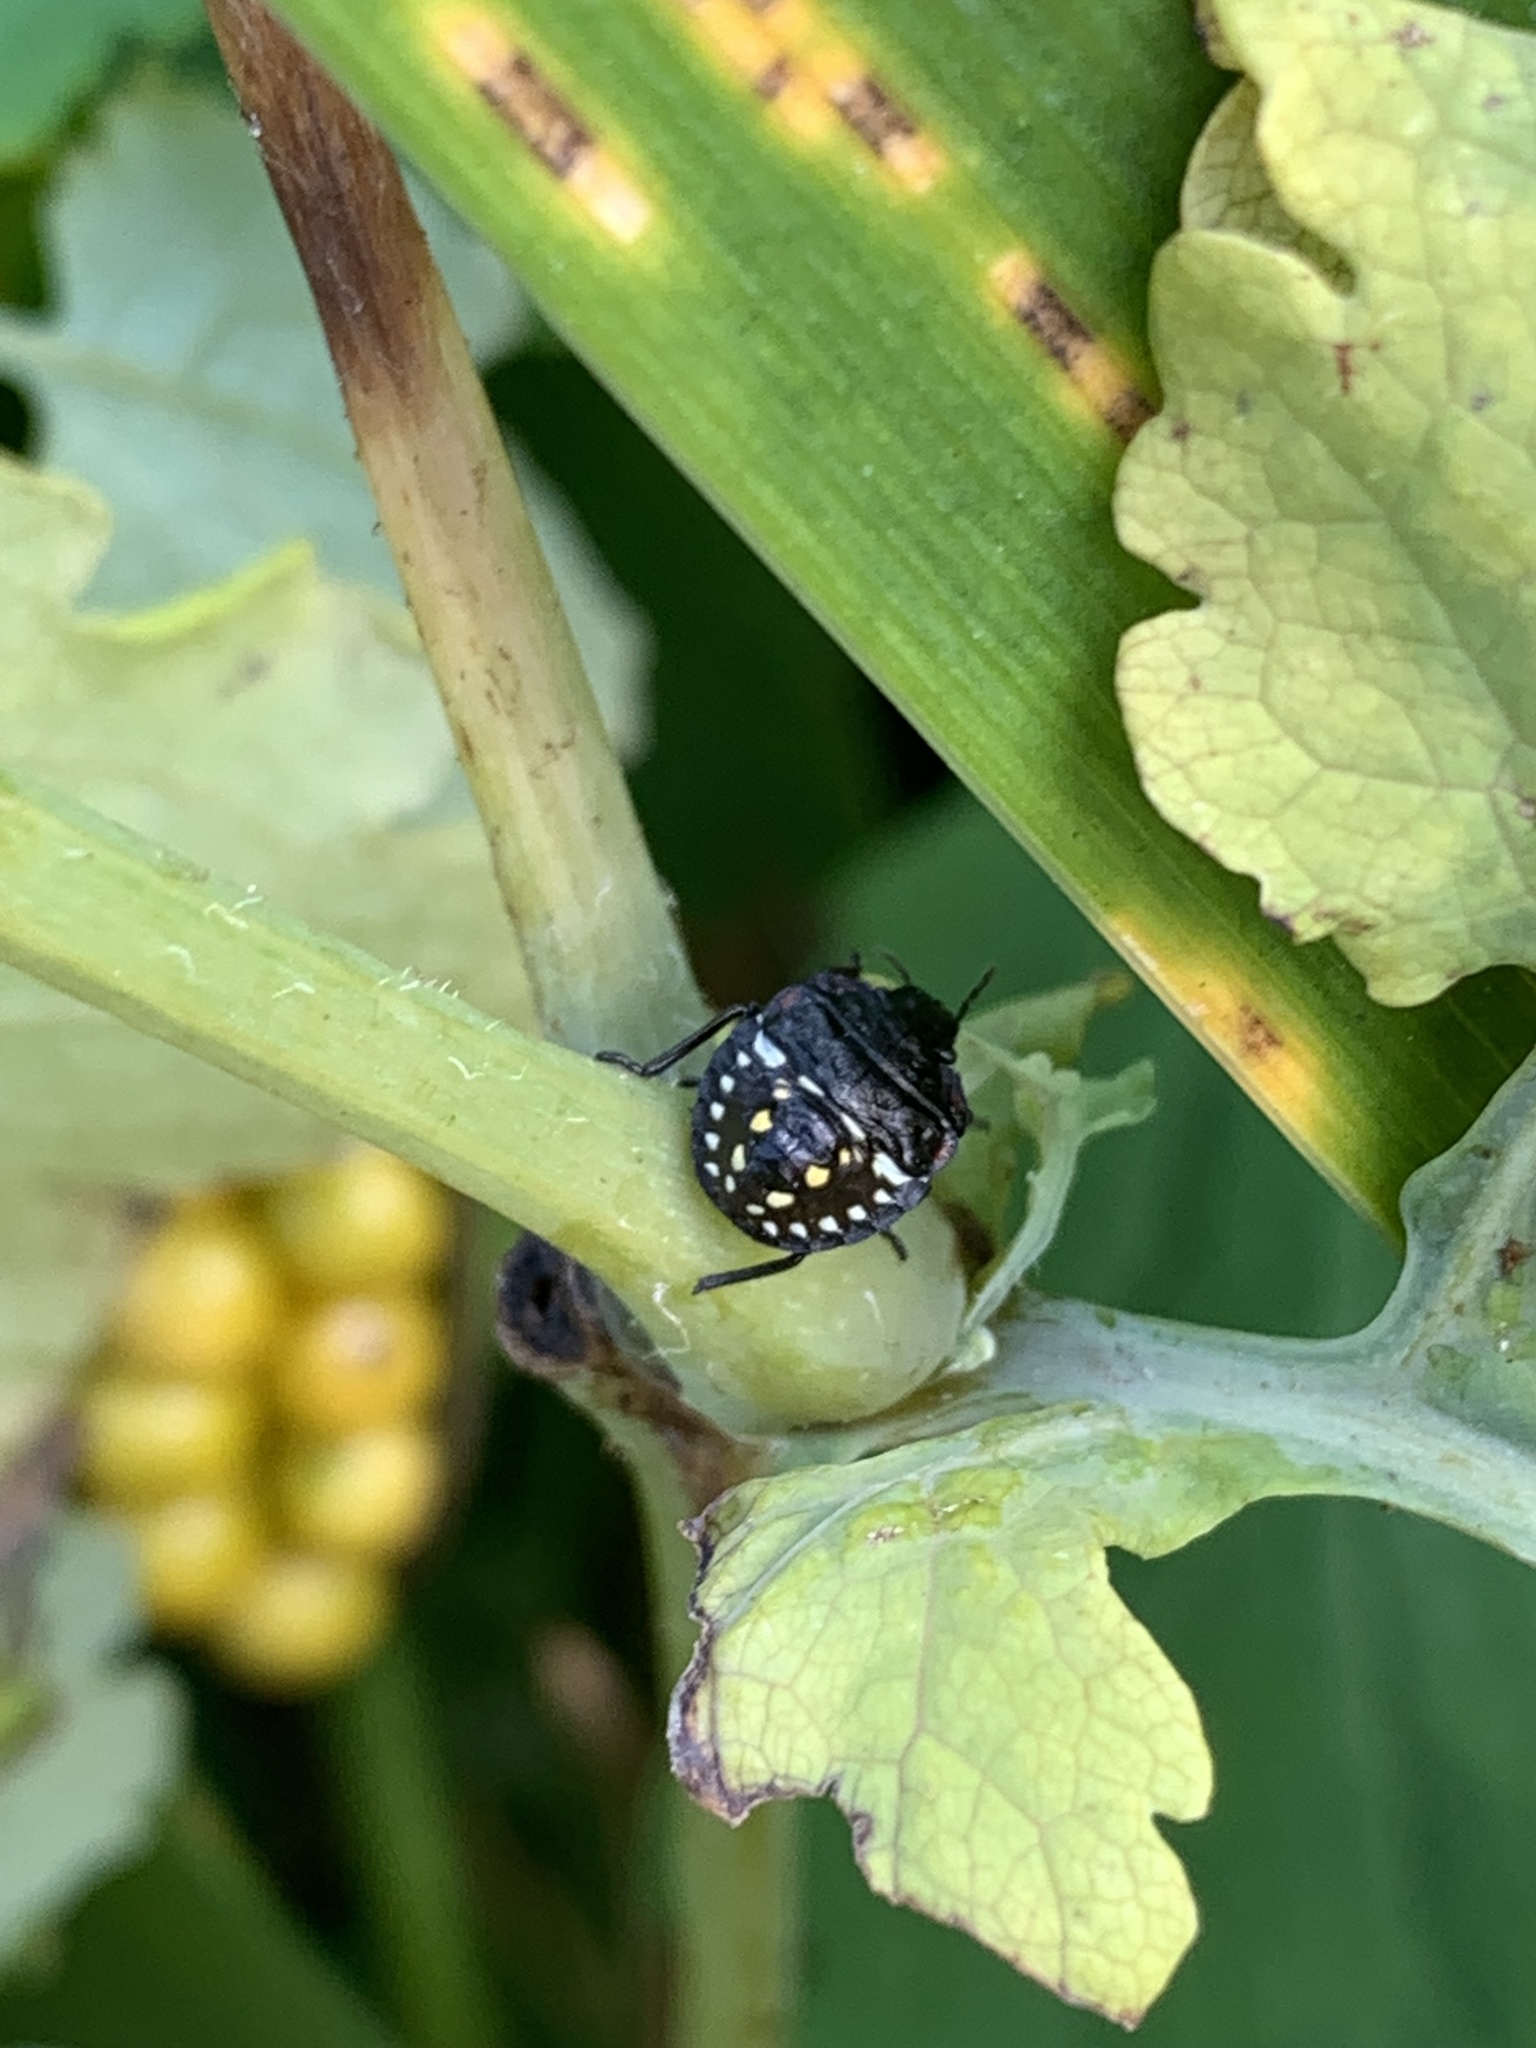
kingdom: Animalia
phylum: Arthropoda
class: Insecta
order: Hemiptera
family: Pentatomidae
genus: Nezara
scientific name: Nezara viridula
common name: Southern green stink bug
